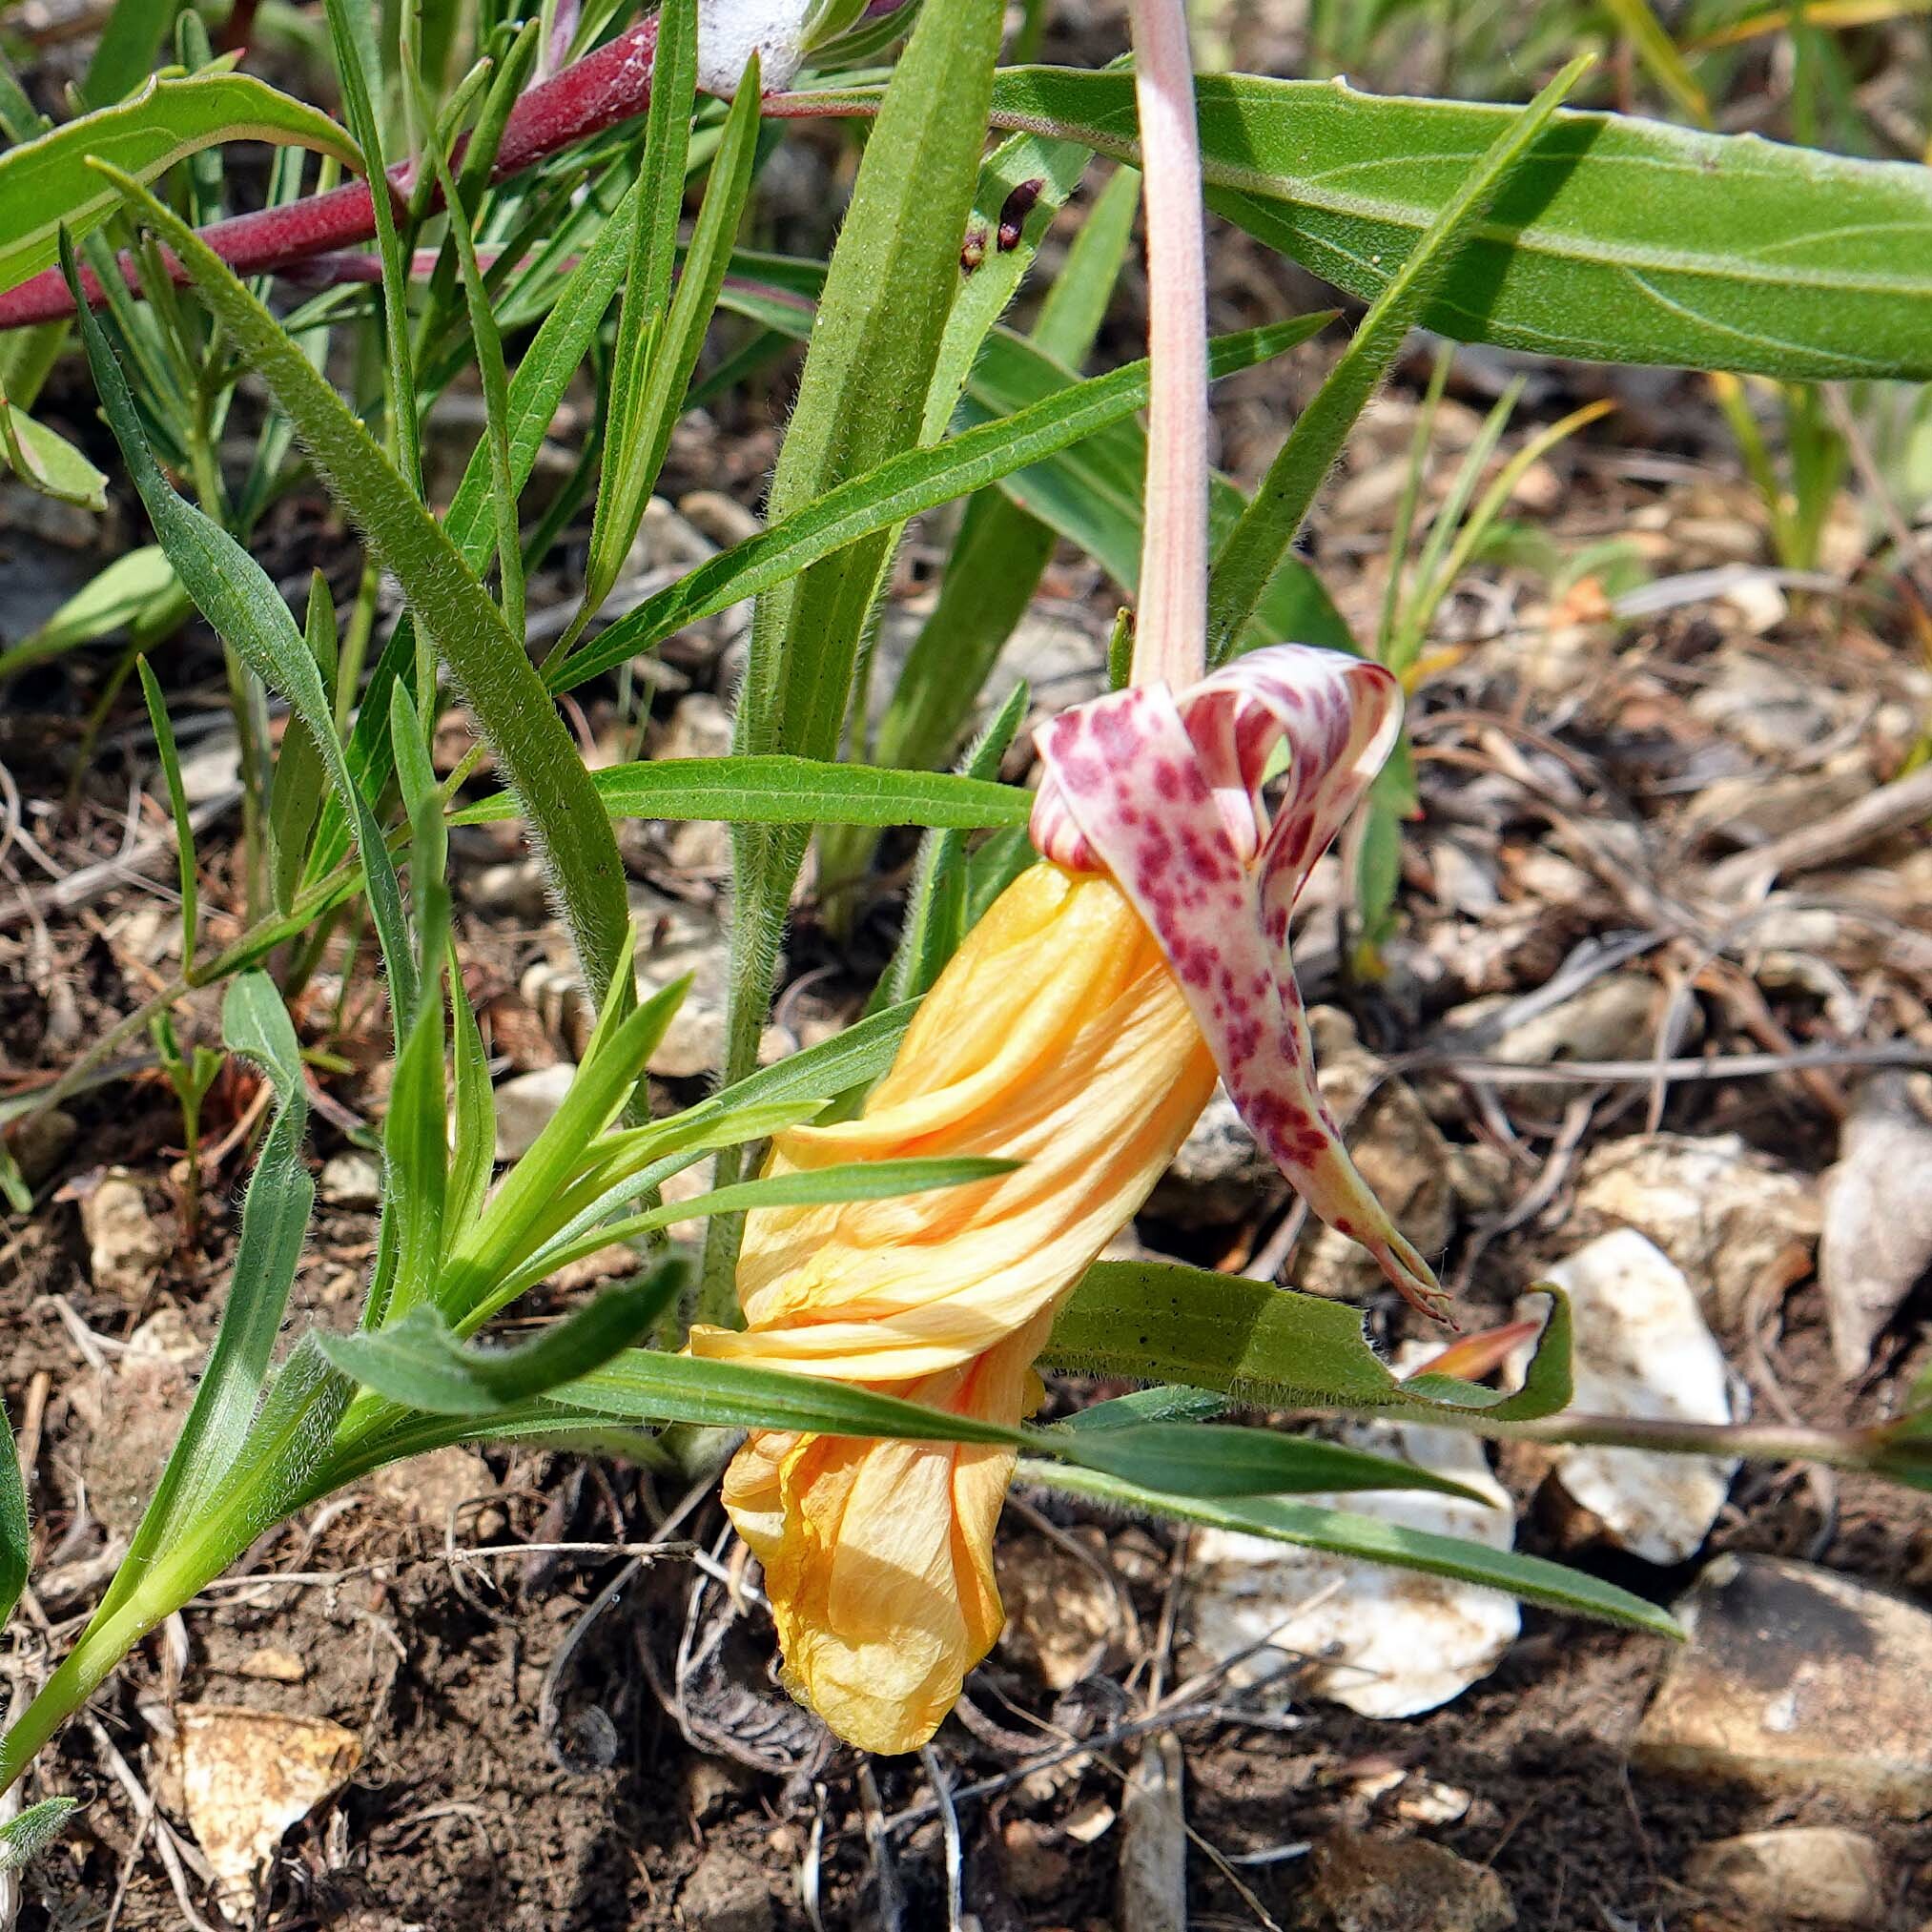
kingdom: Plantae
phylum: Tracheophyta
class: Magnoliopsida
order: Myrtales
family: Onagraceae
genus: Oenothera
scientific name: Oenothera macrocarpa
